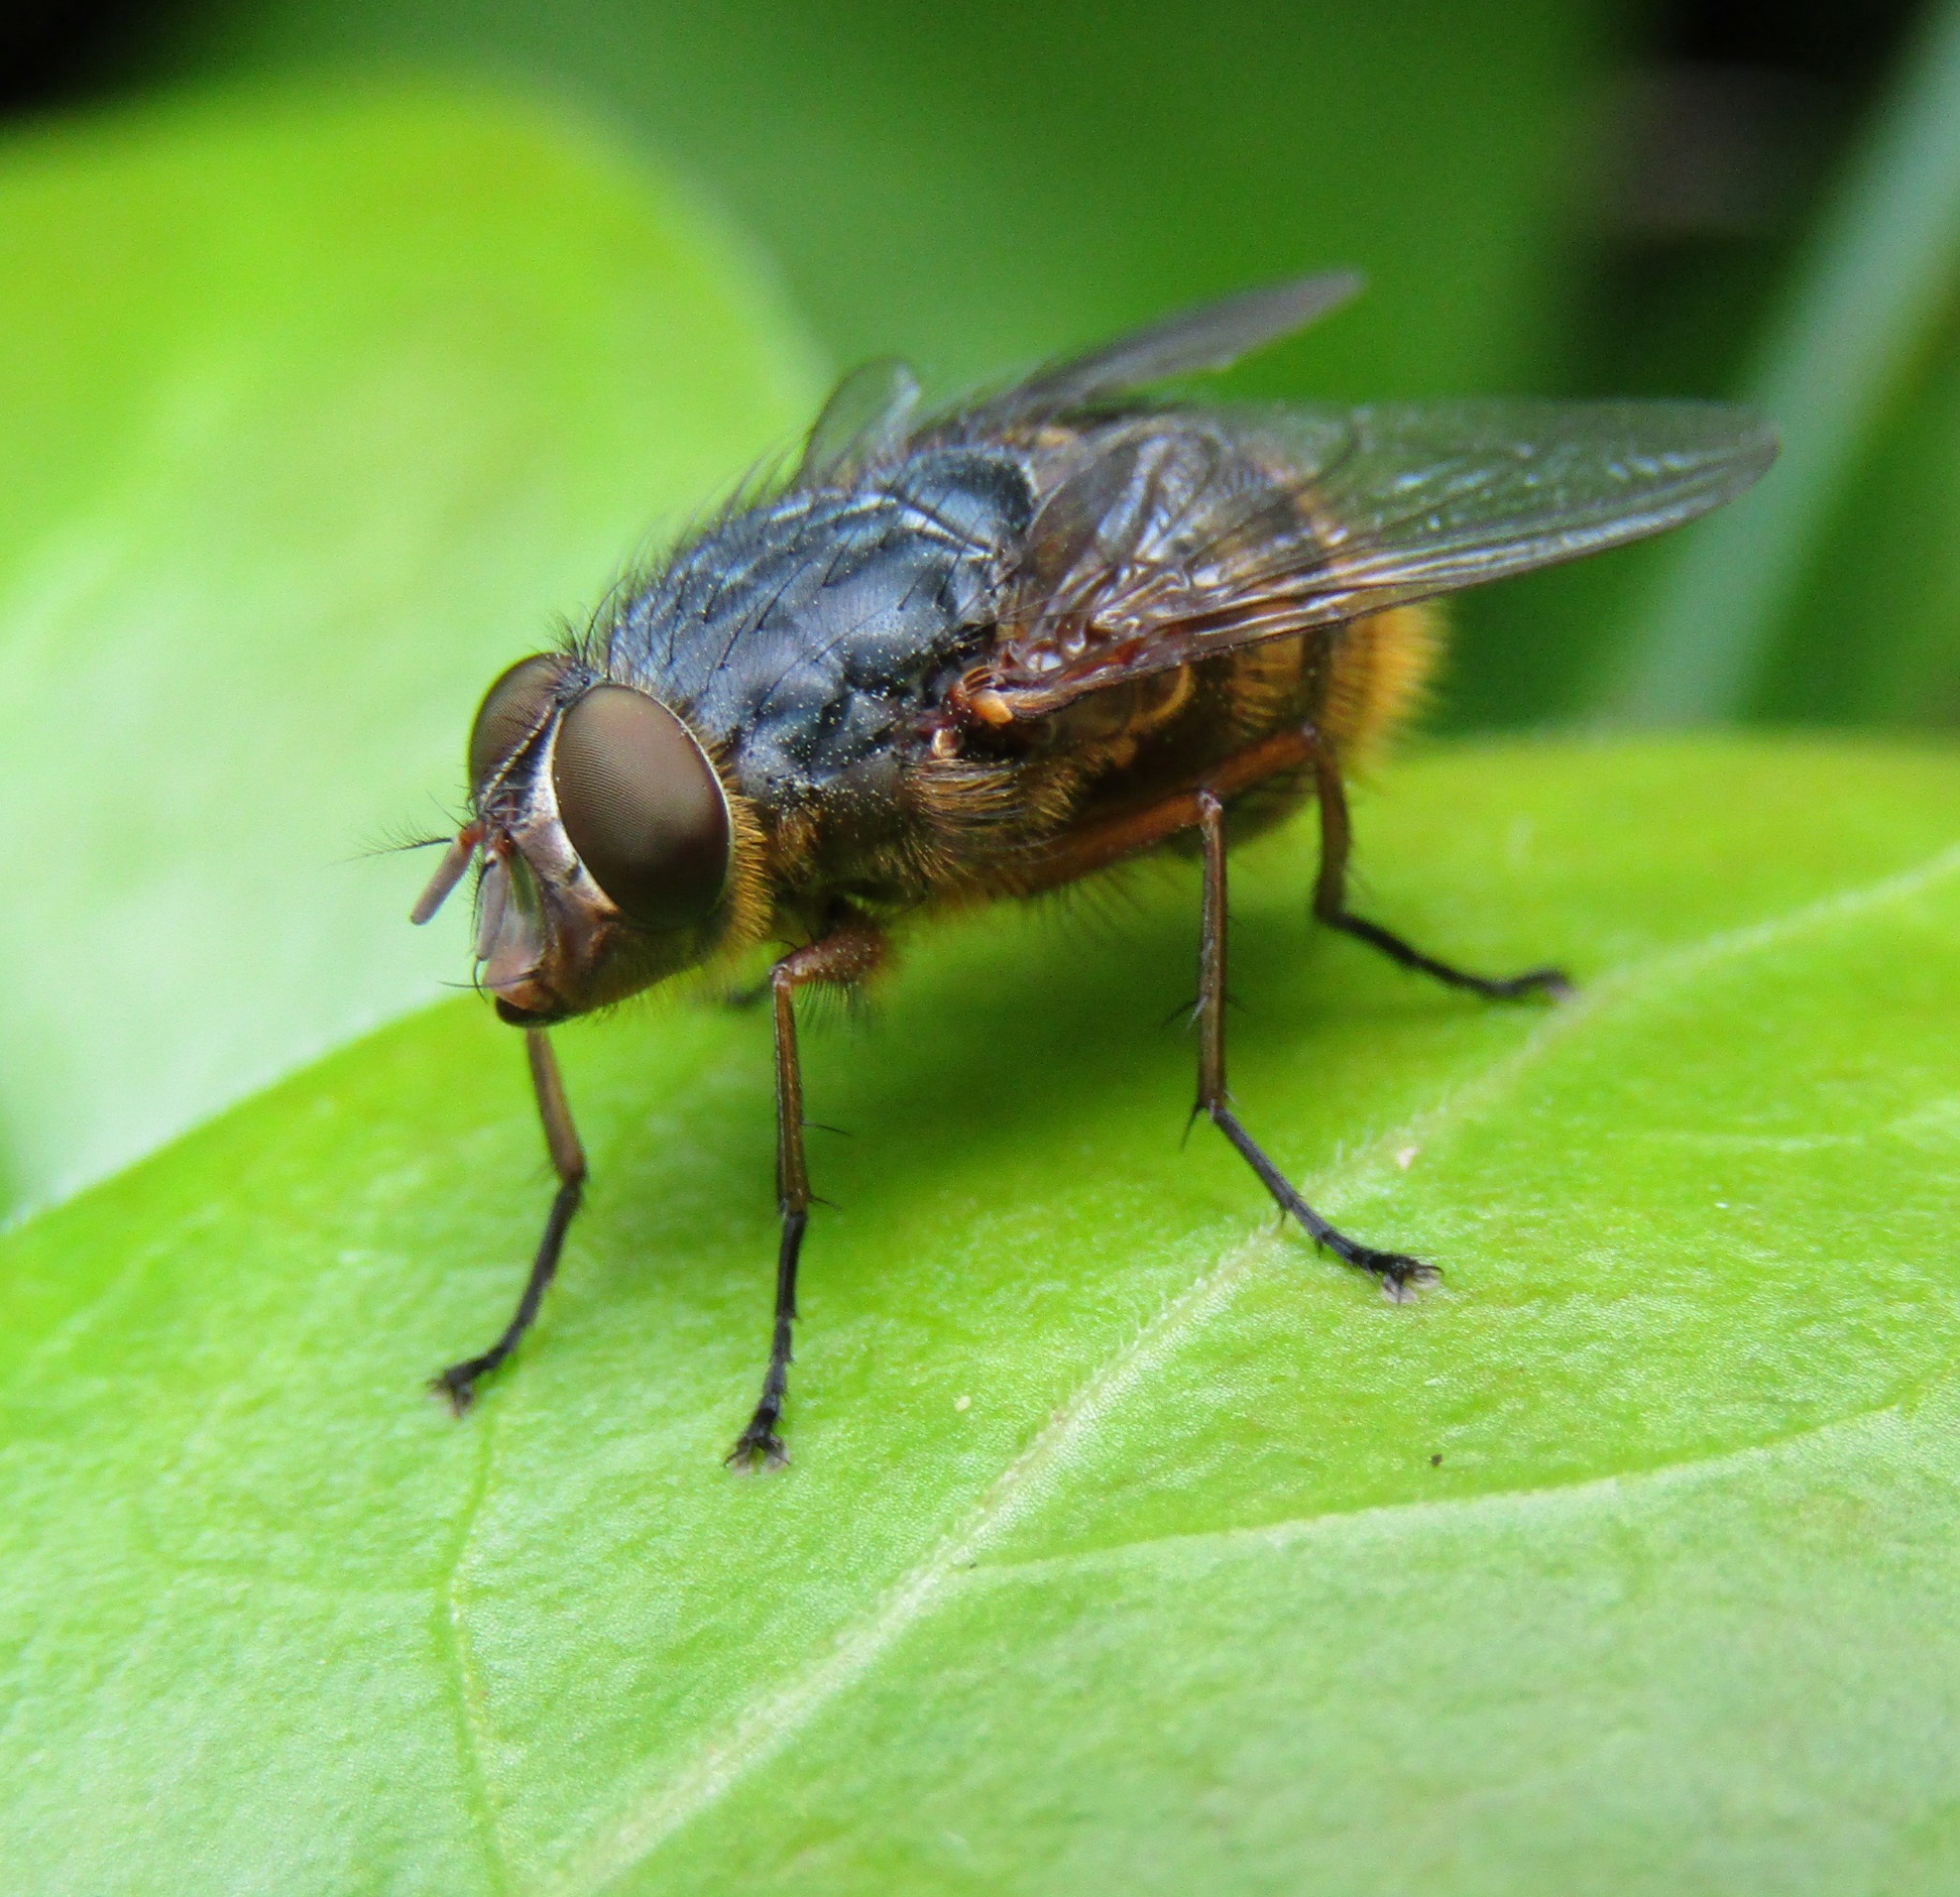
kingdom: Animalia
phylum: Arthropoda
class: Insecta
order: Diptera
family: Calliphoridae
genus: Calliphora
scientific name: Calliphora hilli
